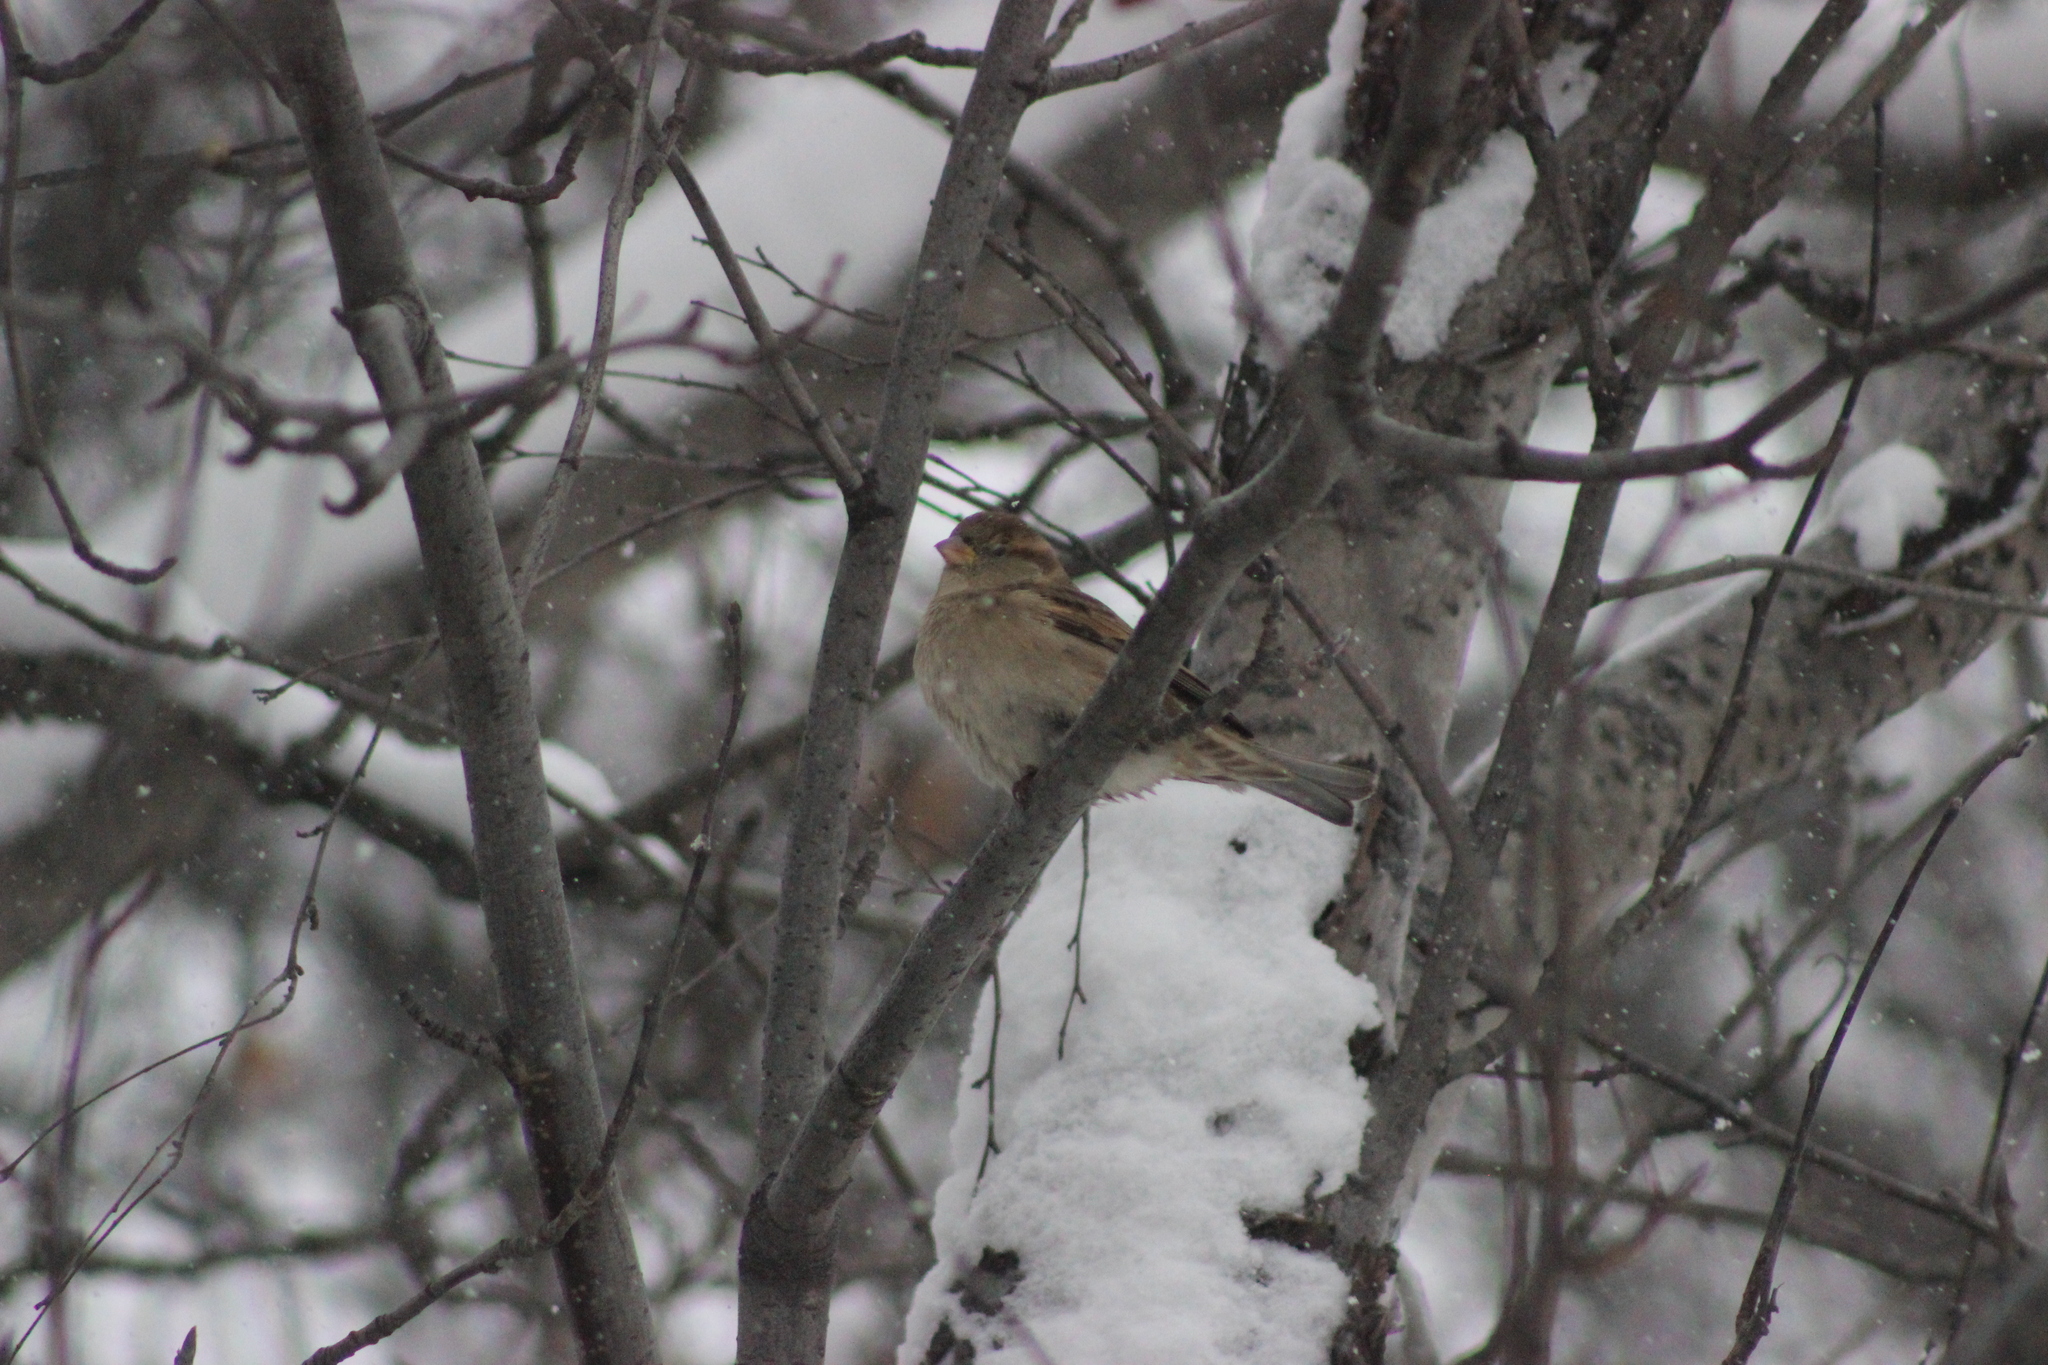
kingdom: Animalia
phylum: Chordata
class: Aves
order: Passeriformes
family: Passeridae
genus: Passer
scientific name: Passer domesticus
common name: House sparrow
